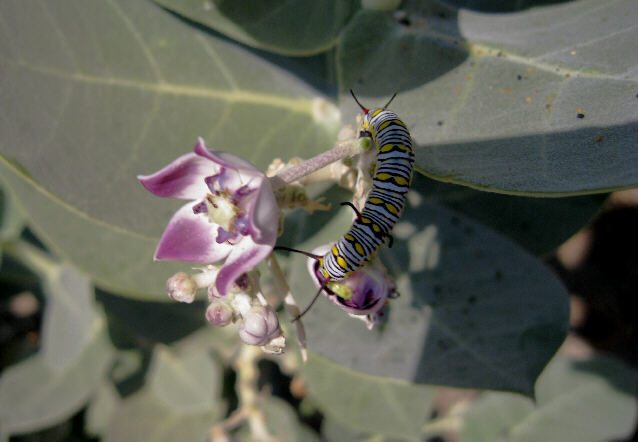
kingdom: Animalia
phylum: Arthropoda
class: Insecta
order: Lepidoptera
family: Nymphalidae
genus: Danaus
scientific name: Danaus chrysippus
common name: Plain tiger
